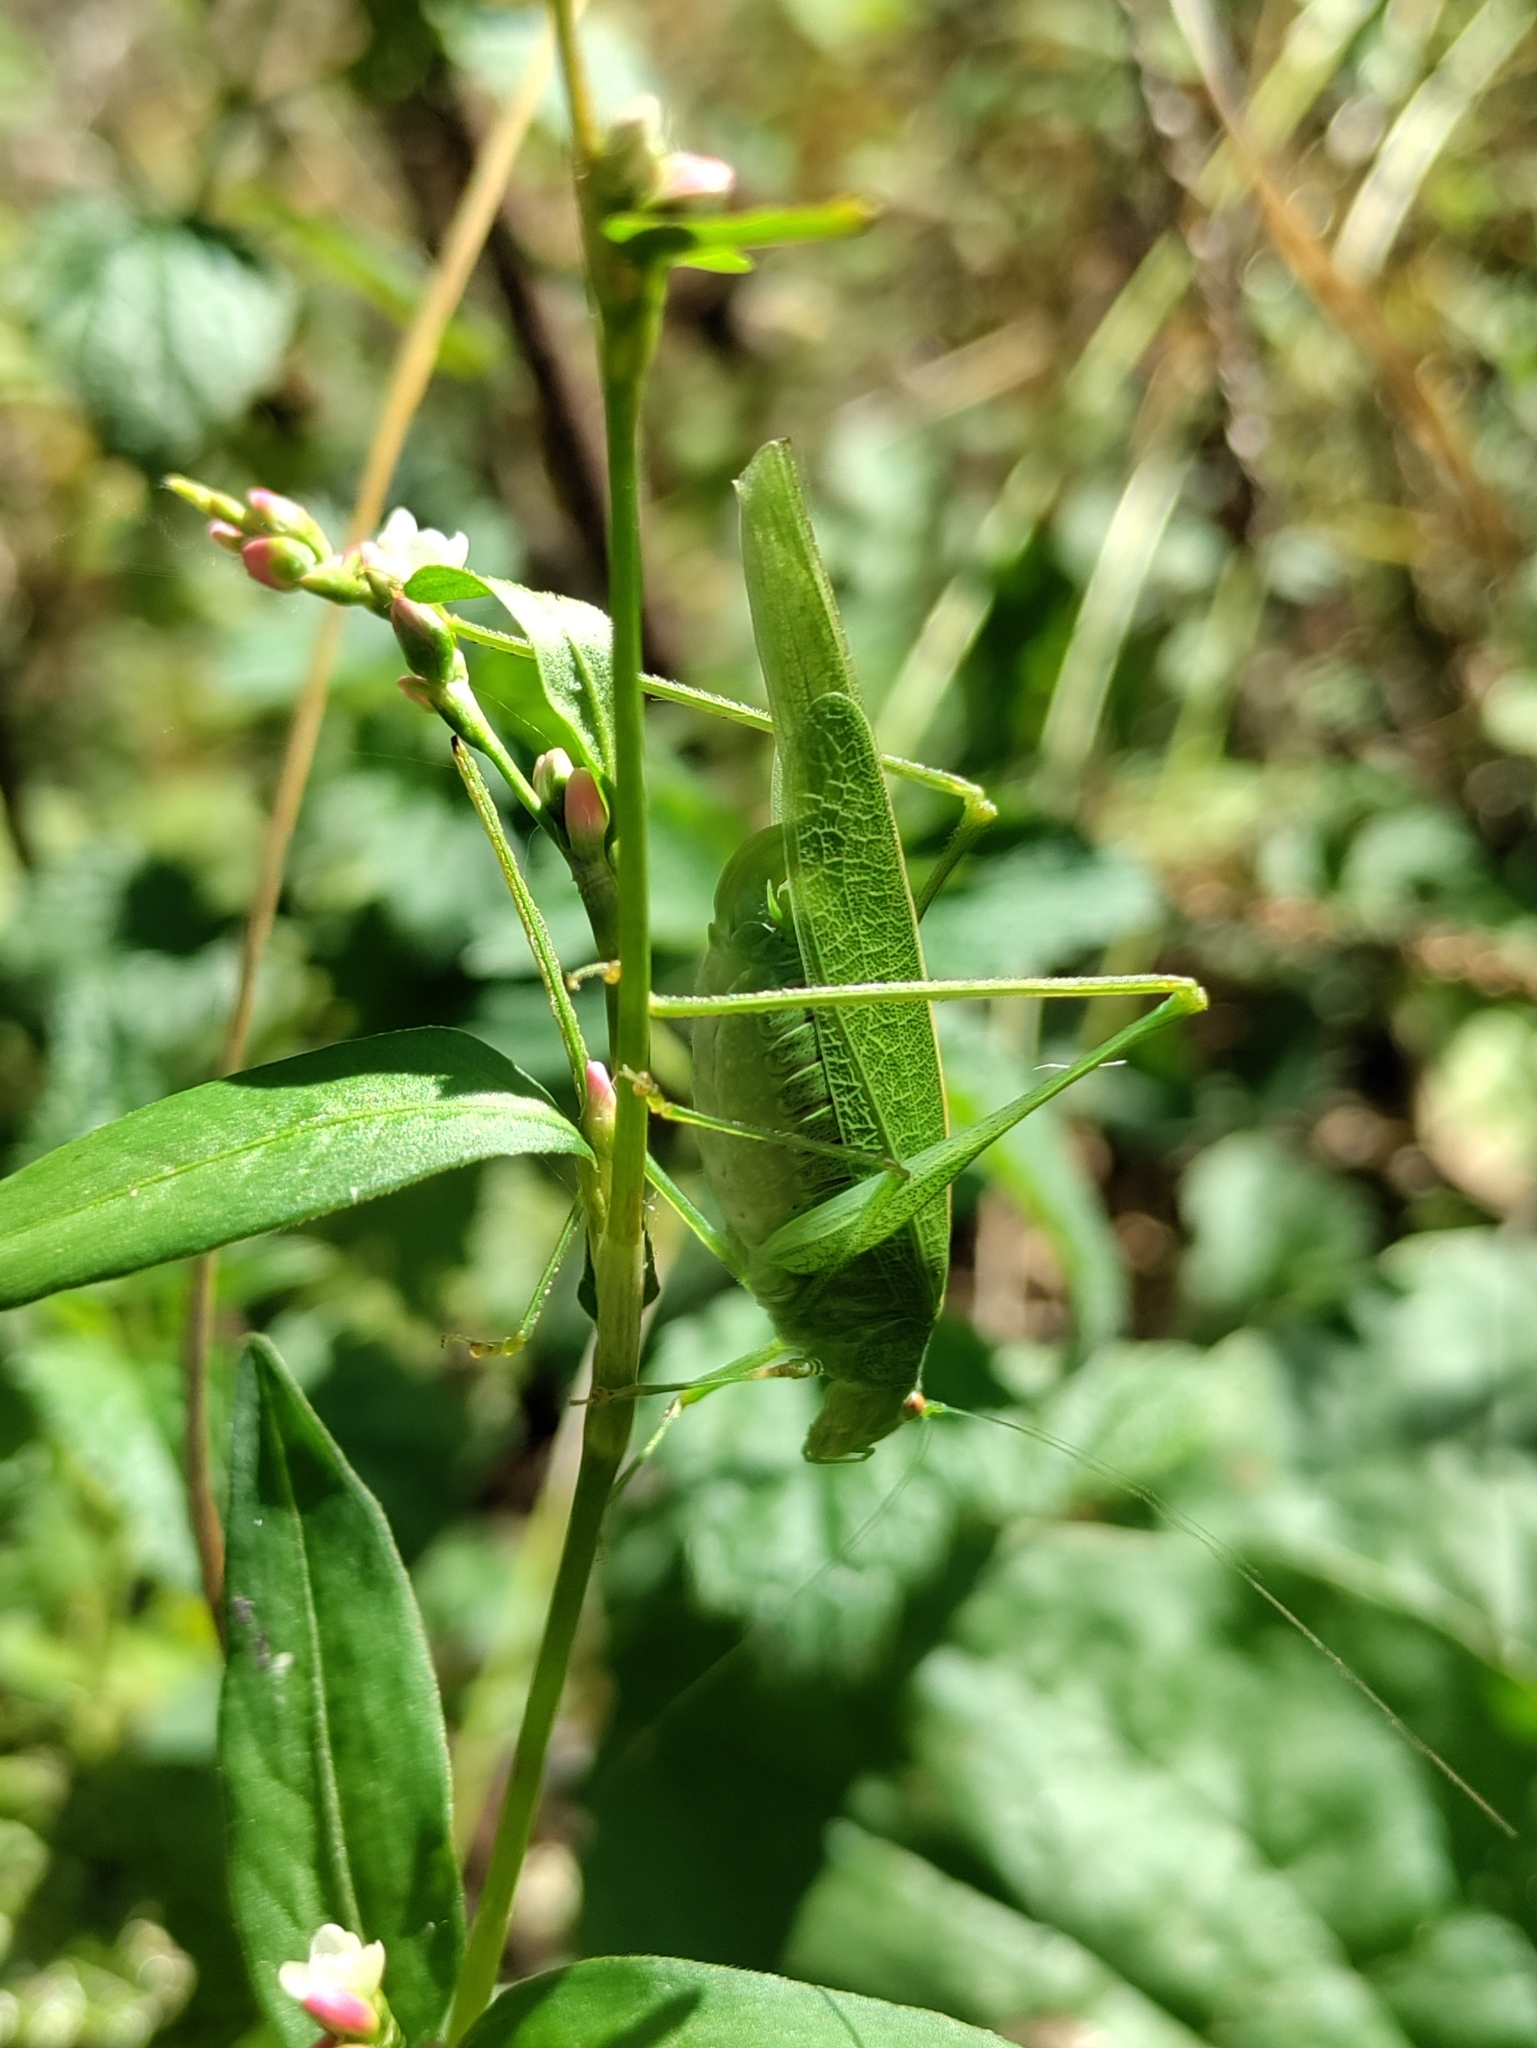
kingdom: Animalia
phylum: Arthropoda
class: Insecta
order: Orthoptera
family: Tettigoniidae
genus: Phaneroptera
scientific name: Phaneroptera nana
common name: Southern sickle bush-cricket
